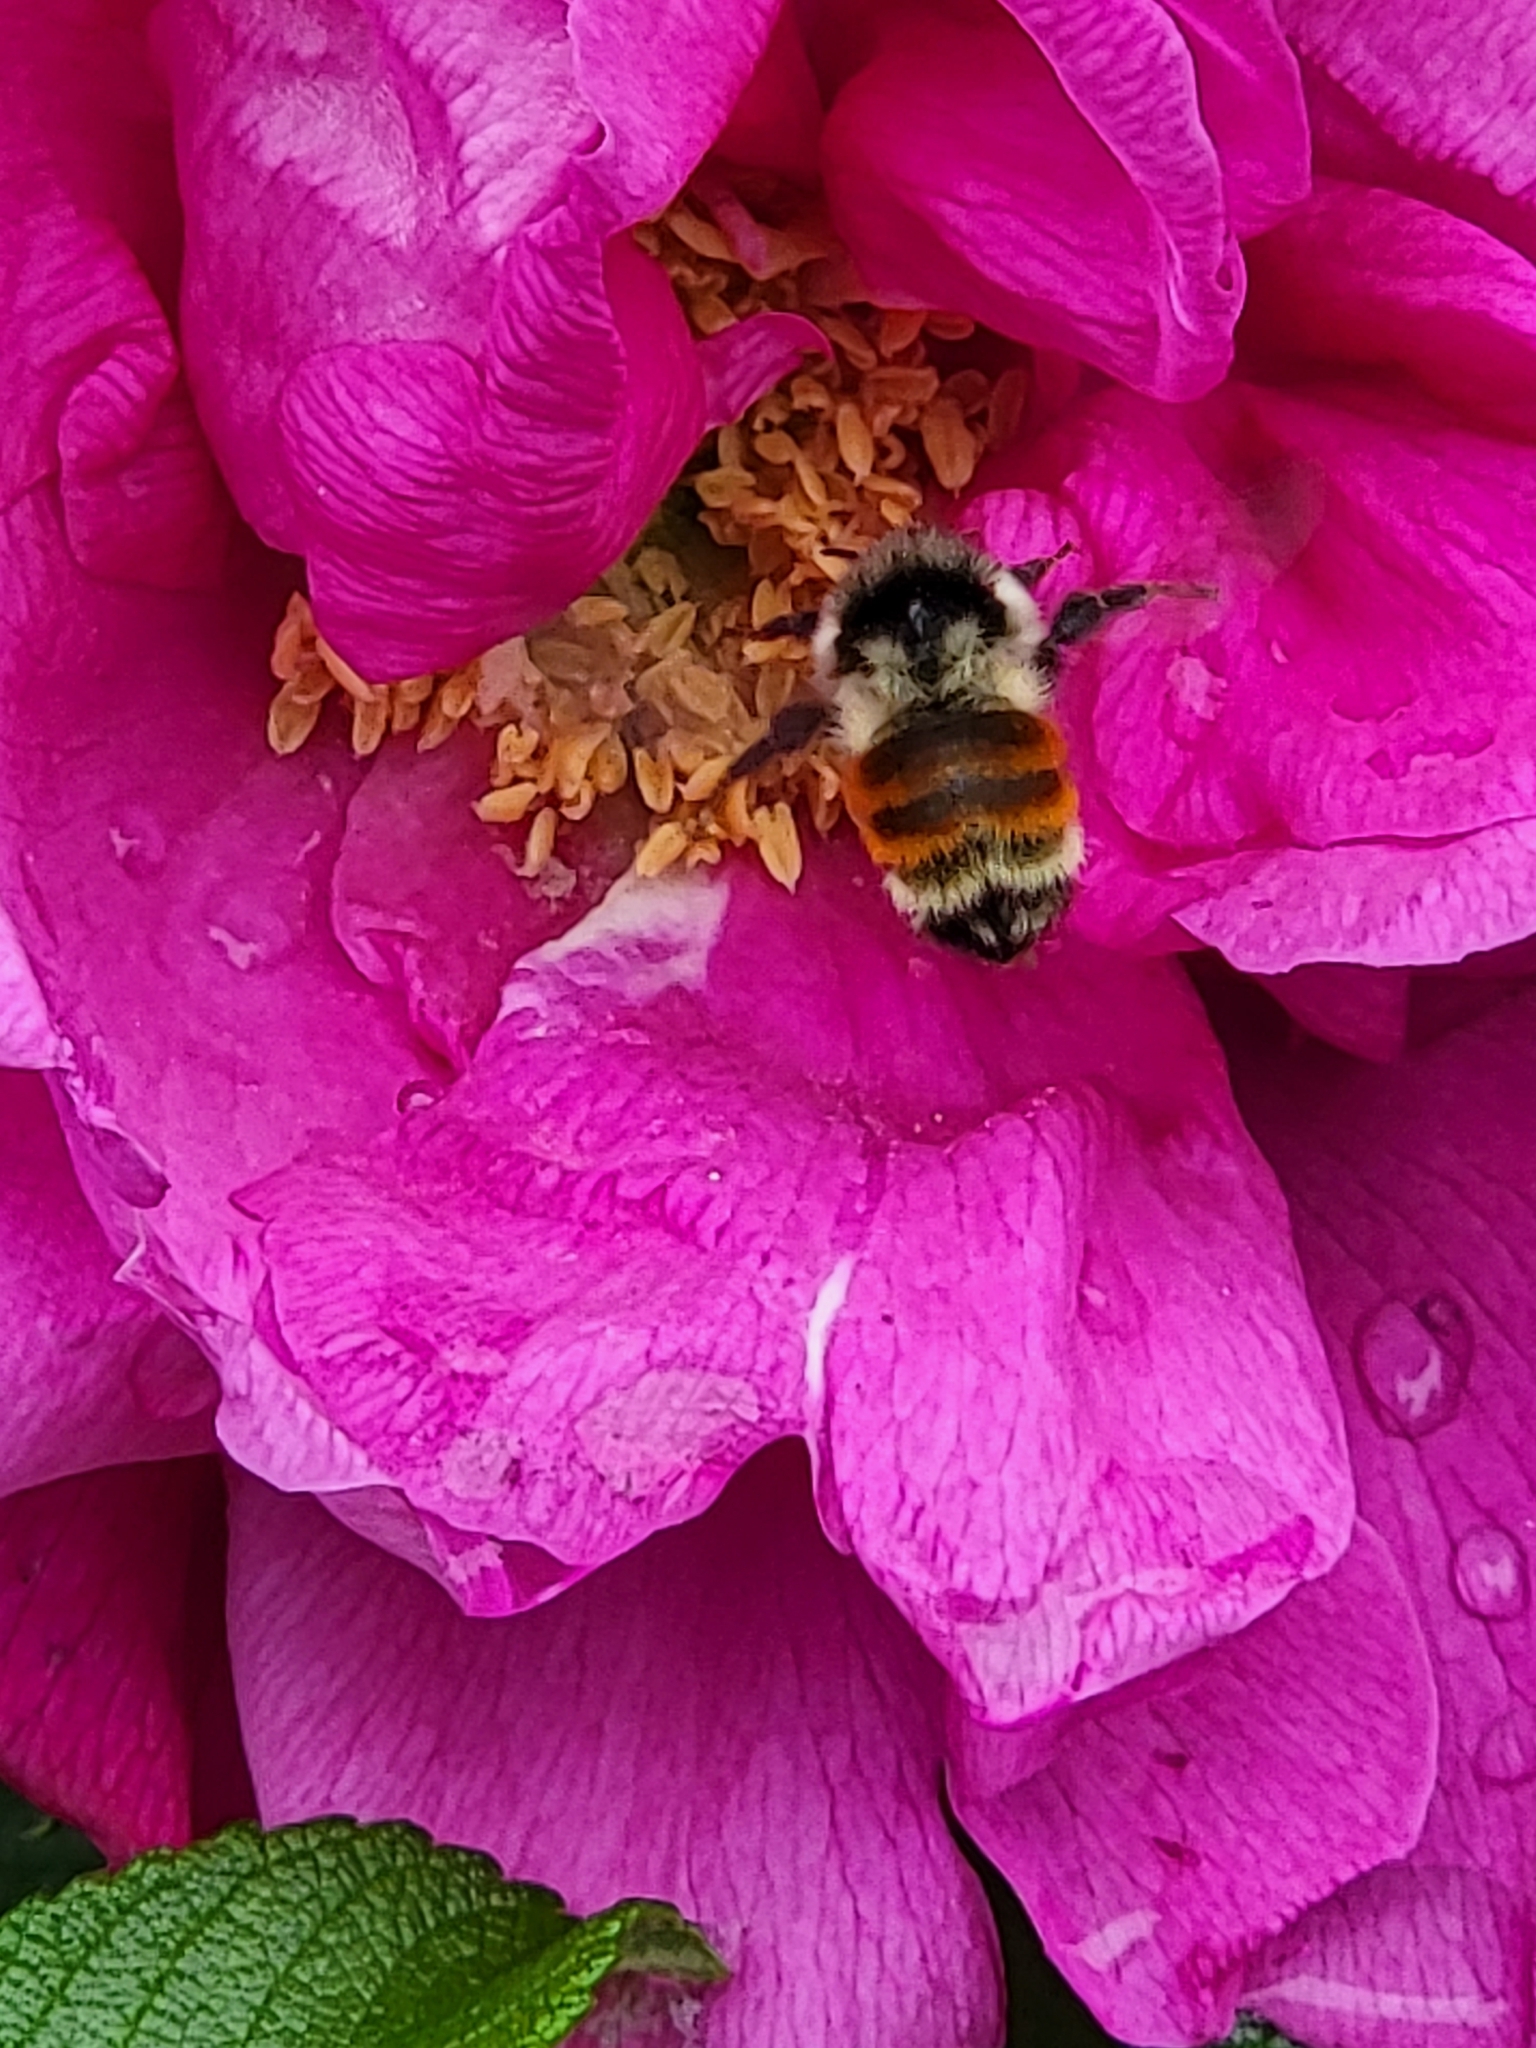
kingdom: Animalia
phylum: Arthropoda
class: Insecta
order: Hymenoptera
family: Apidae
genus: Bombus
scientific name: Bombus ternarius
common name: Tri-colored bumble bee
